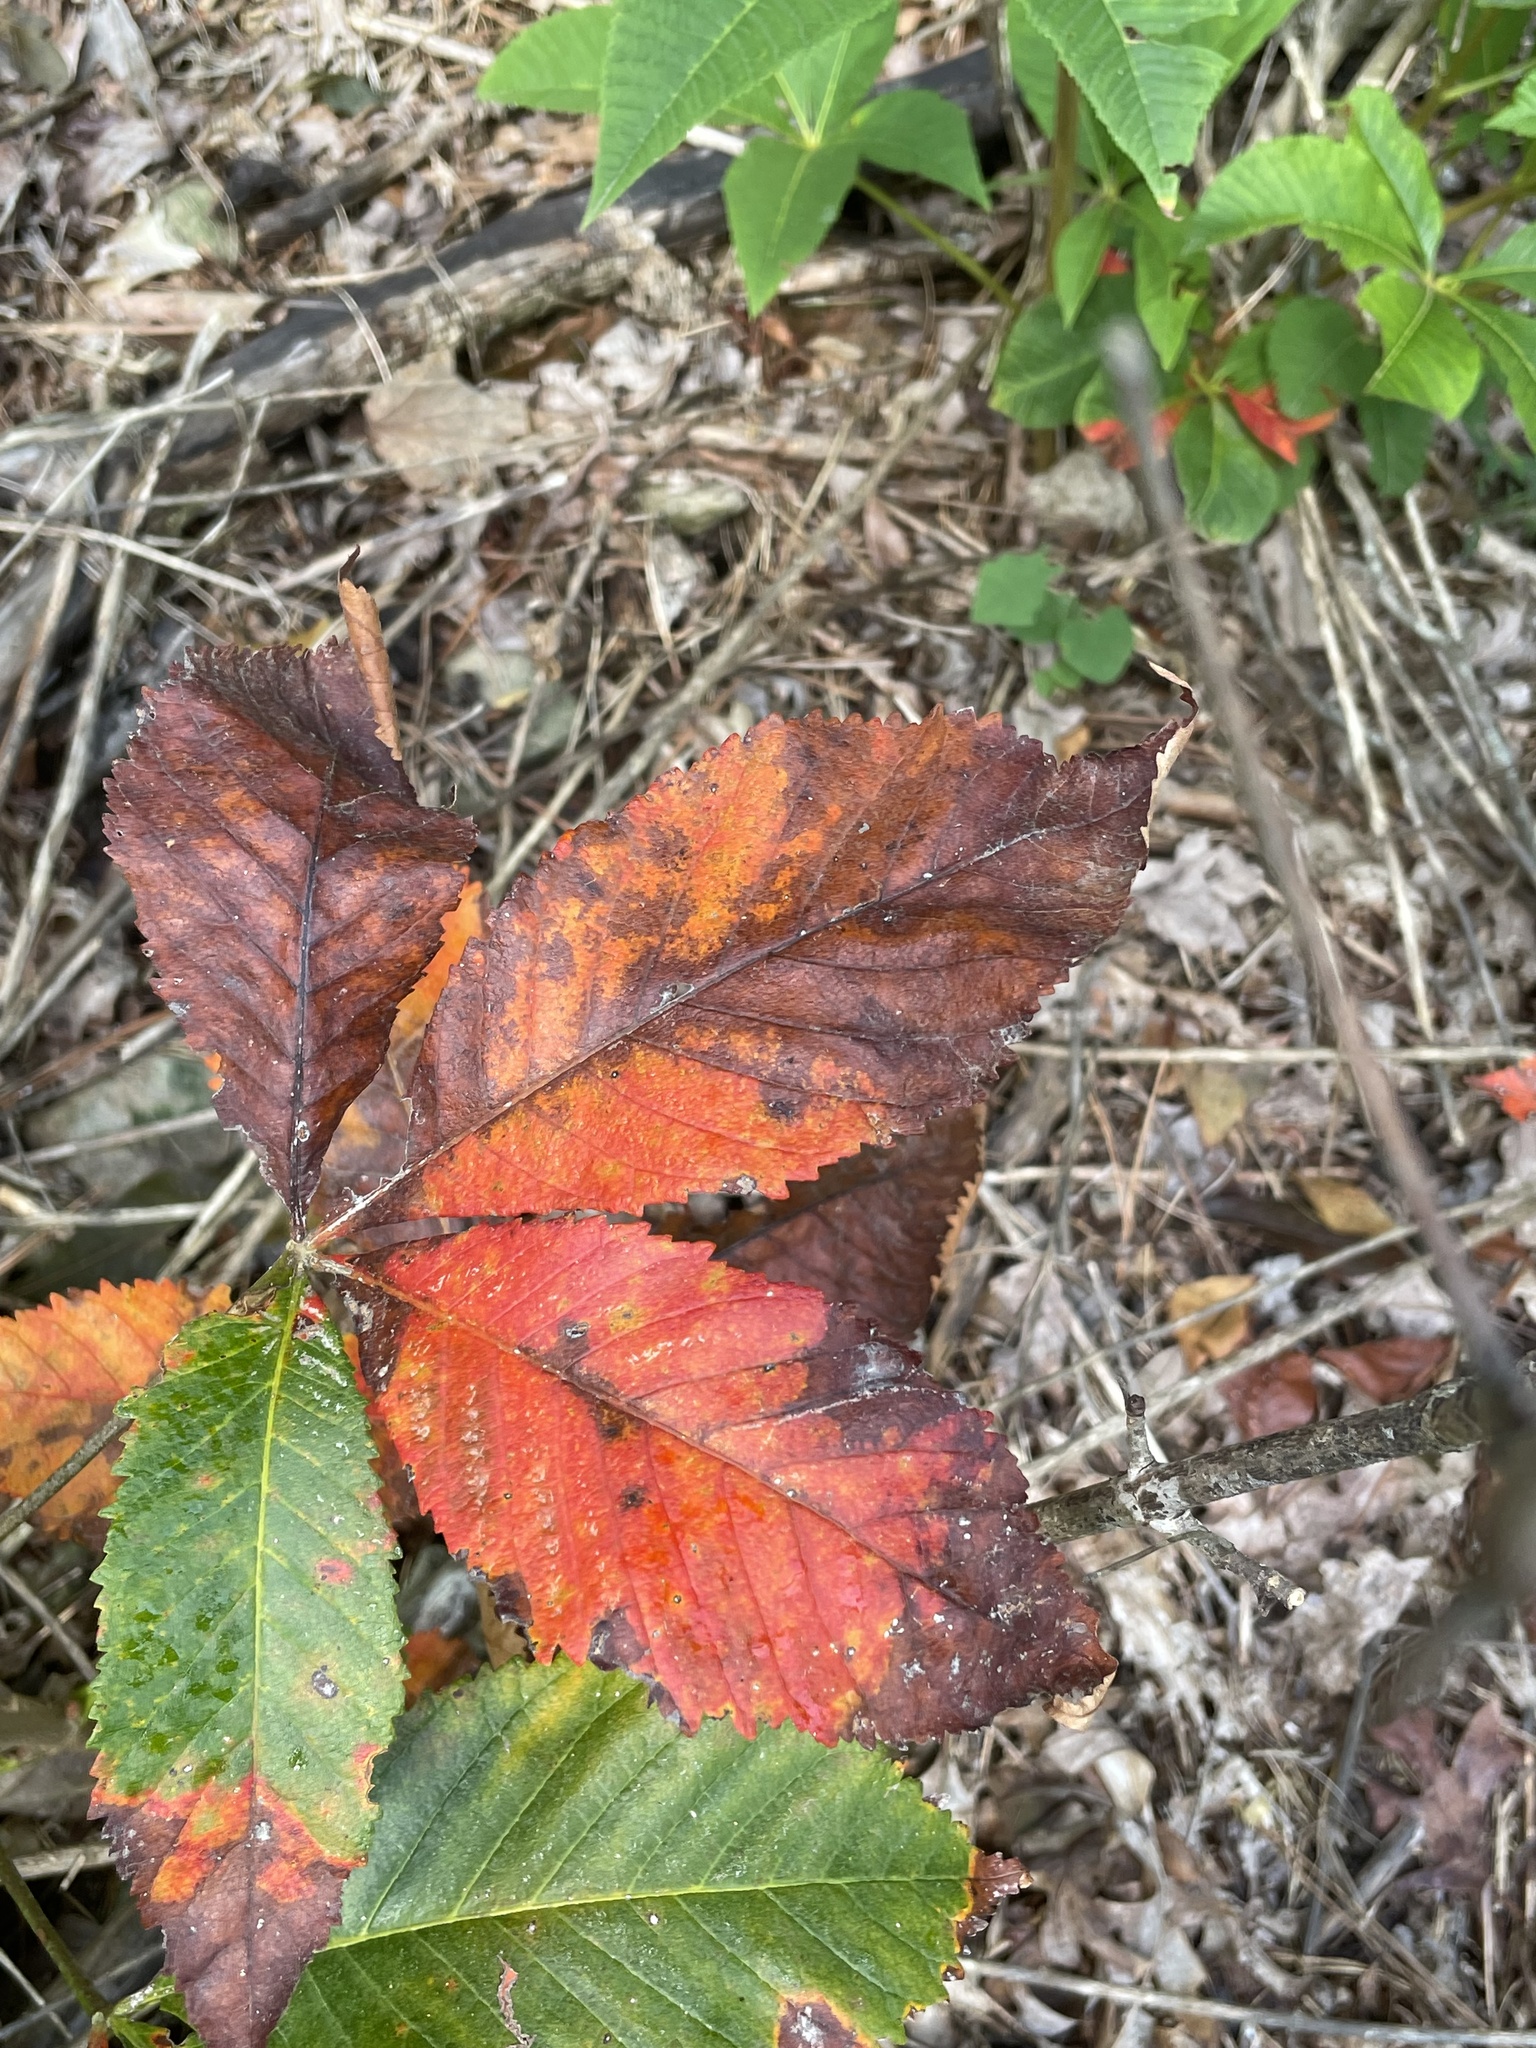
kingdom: Plantae
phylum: Tracheophyta
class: Magnoliopsida
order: Sapindales
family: Sapindaceae
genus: Aesculus
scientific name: Aesculus sylvatica
